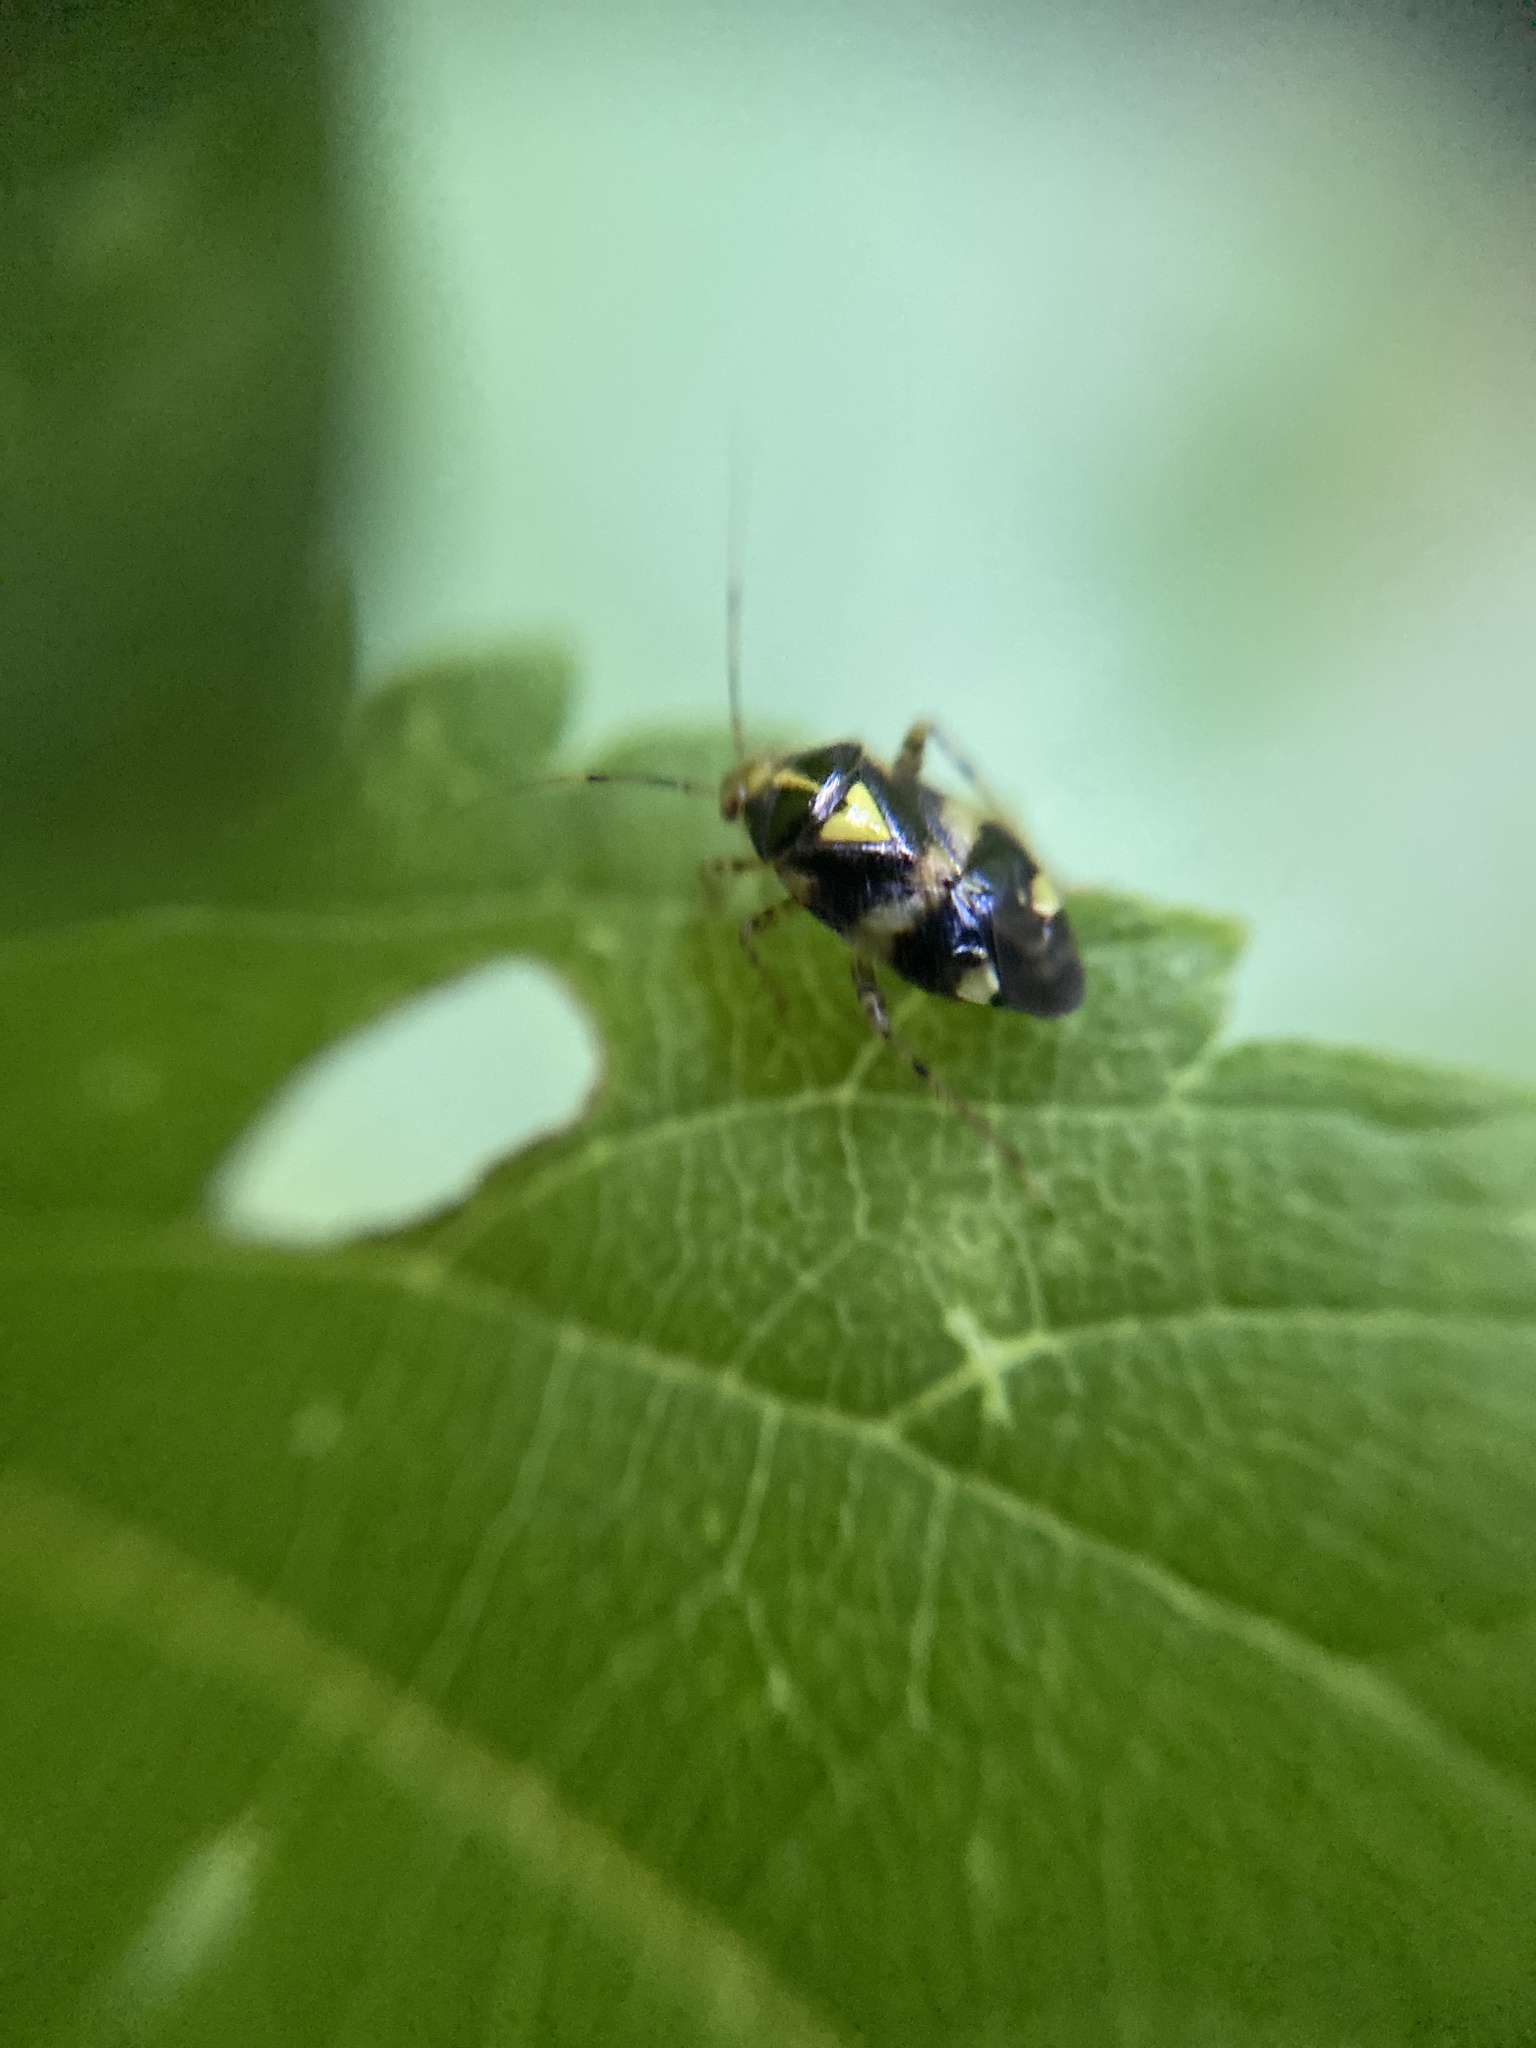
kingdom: Animalia
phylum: Arthropoda
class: Insecta
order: Hemiptera
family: Miridae
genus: Liocoris
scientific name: Liocoris tripustulatus
